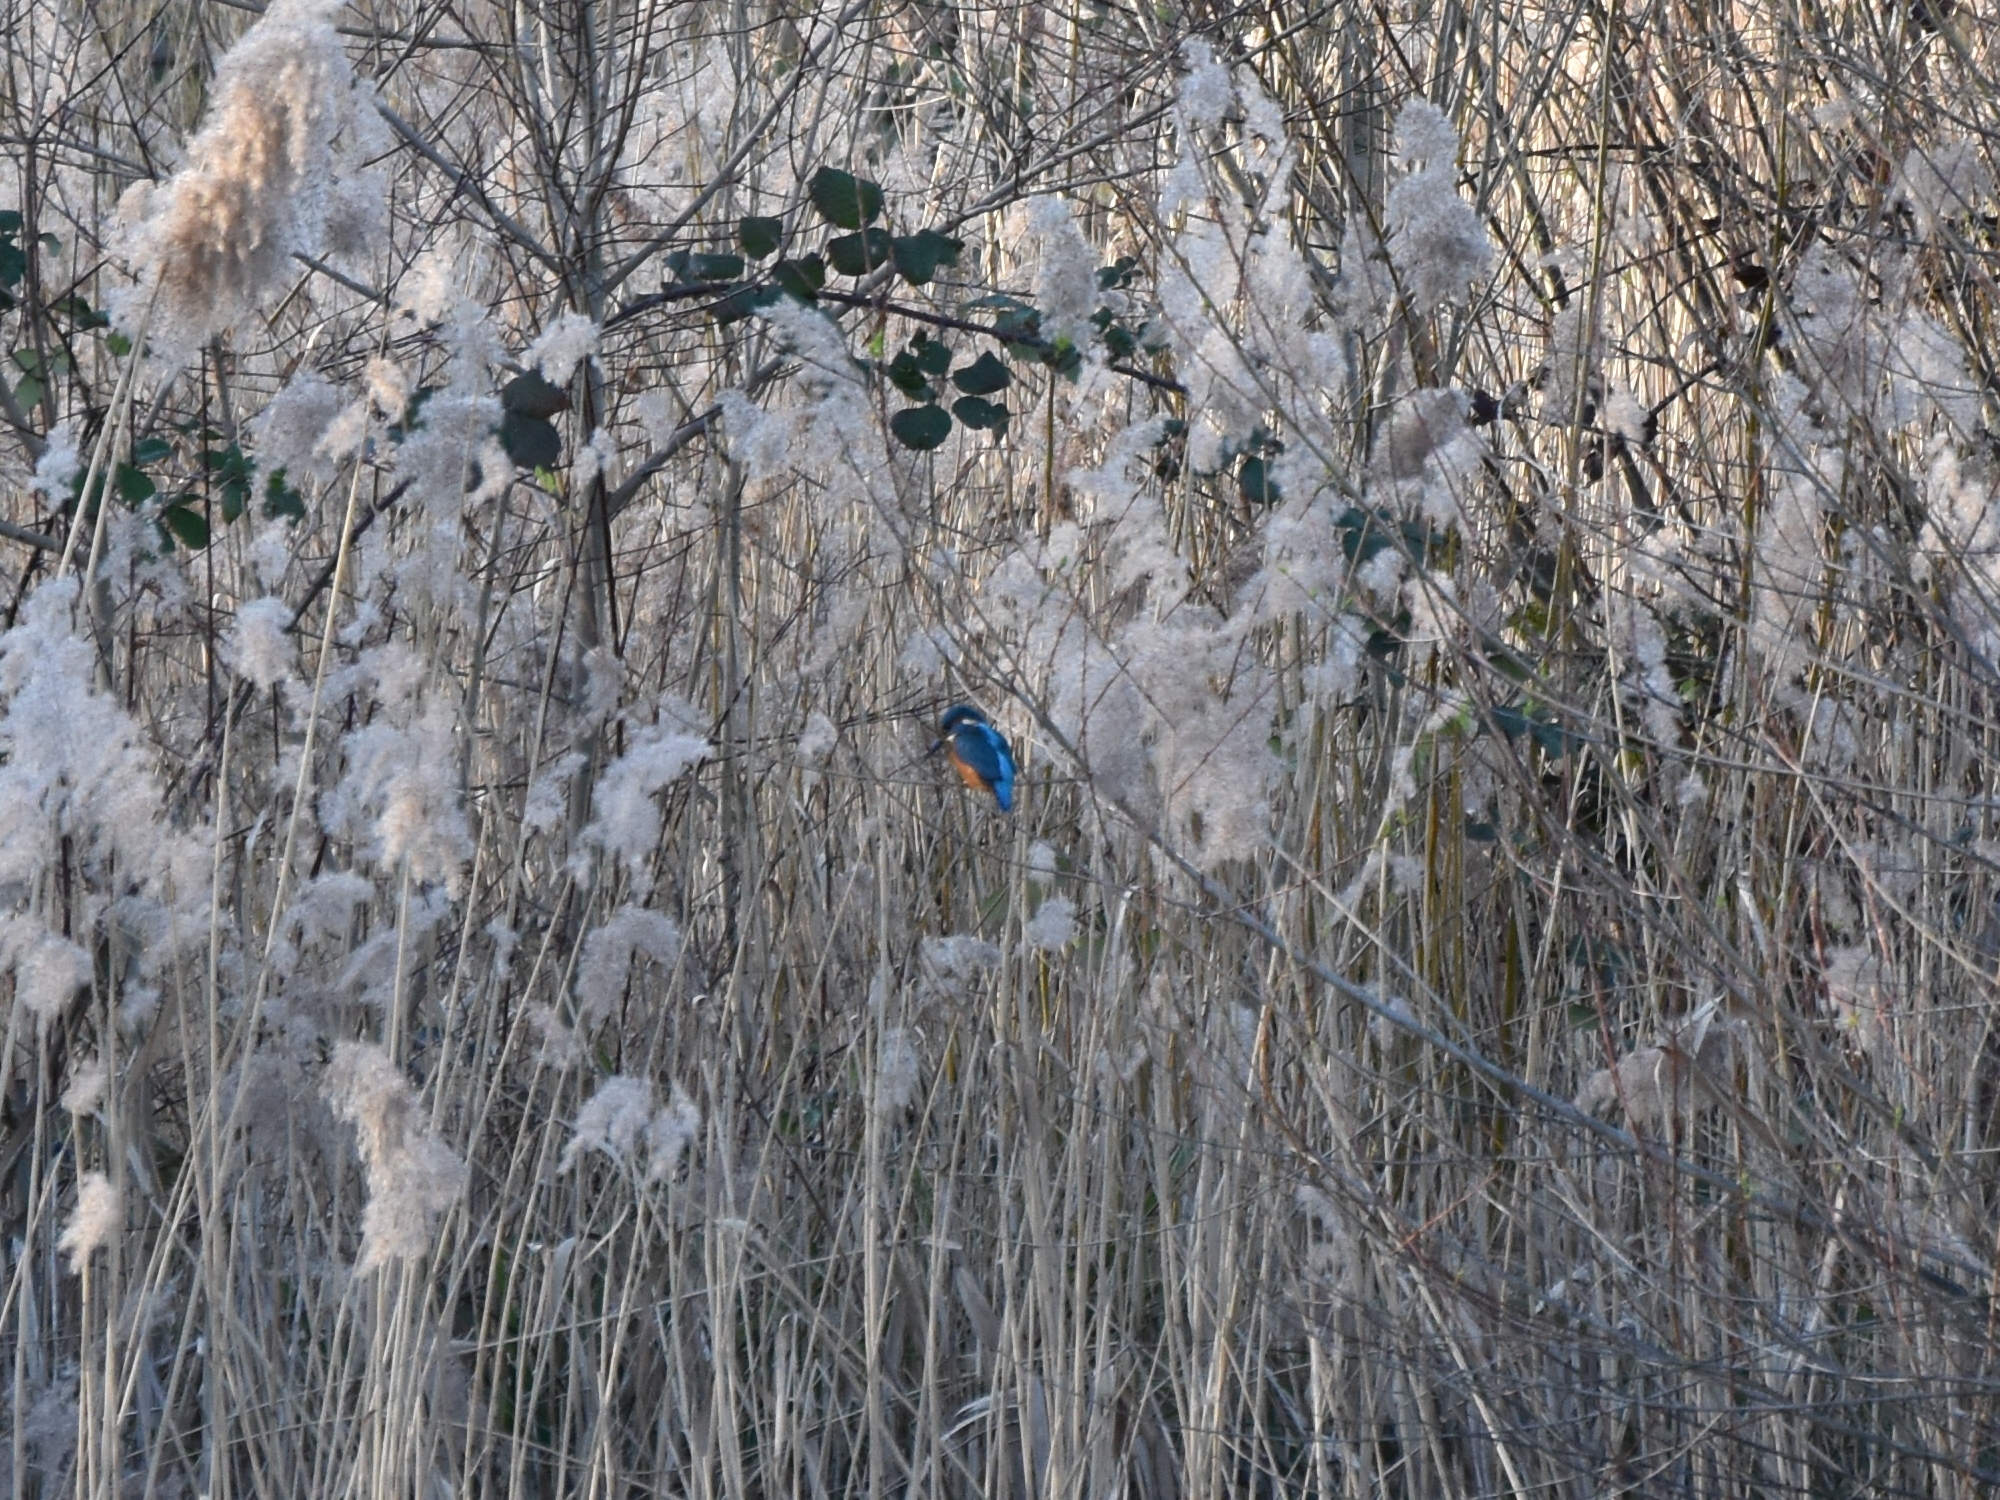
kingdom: Animalia
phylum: Chordata
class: Aves
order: Coraciiformes
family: Alcedinidae
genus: Alcedo
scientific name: Alcedo atthis
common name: Common kingfisher
